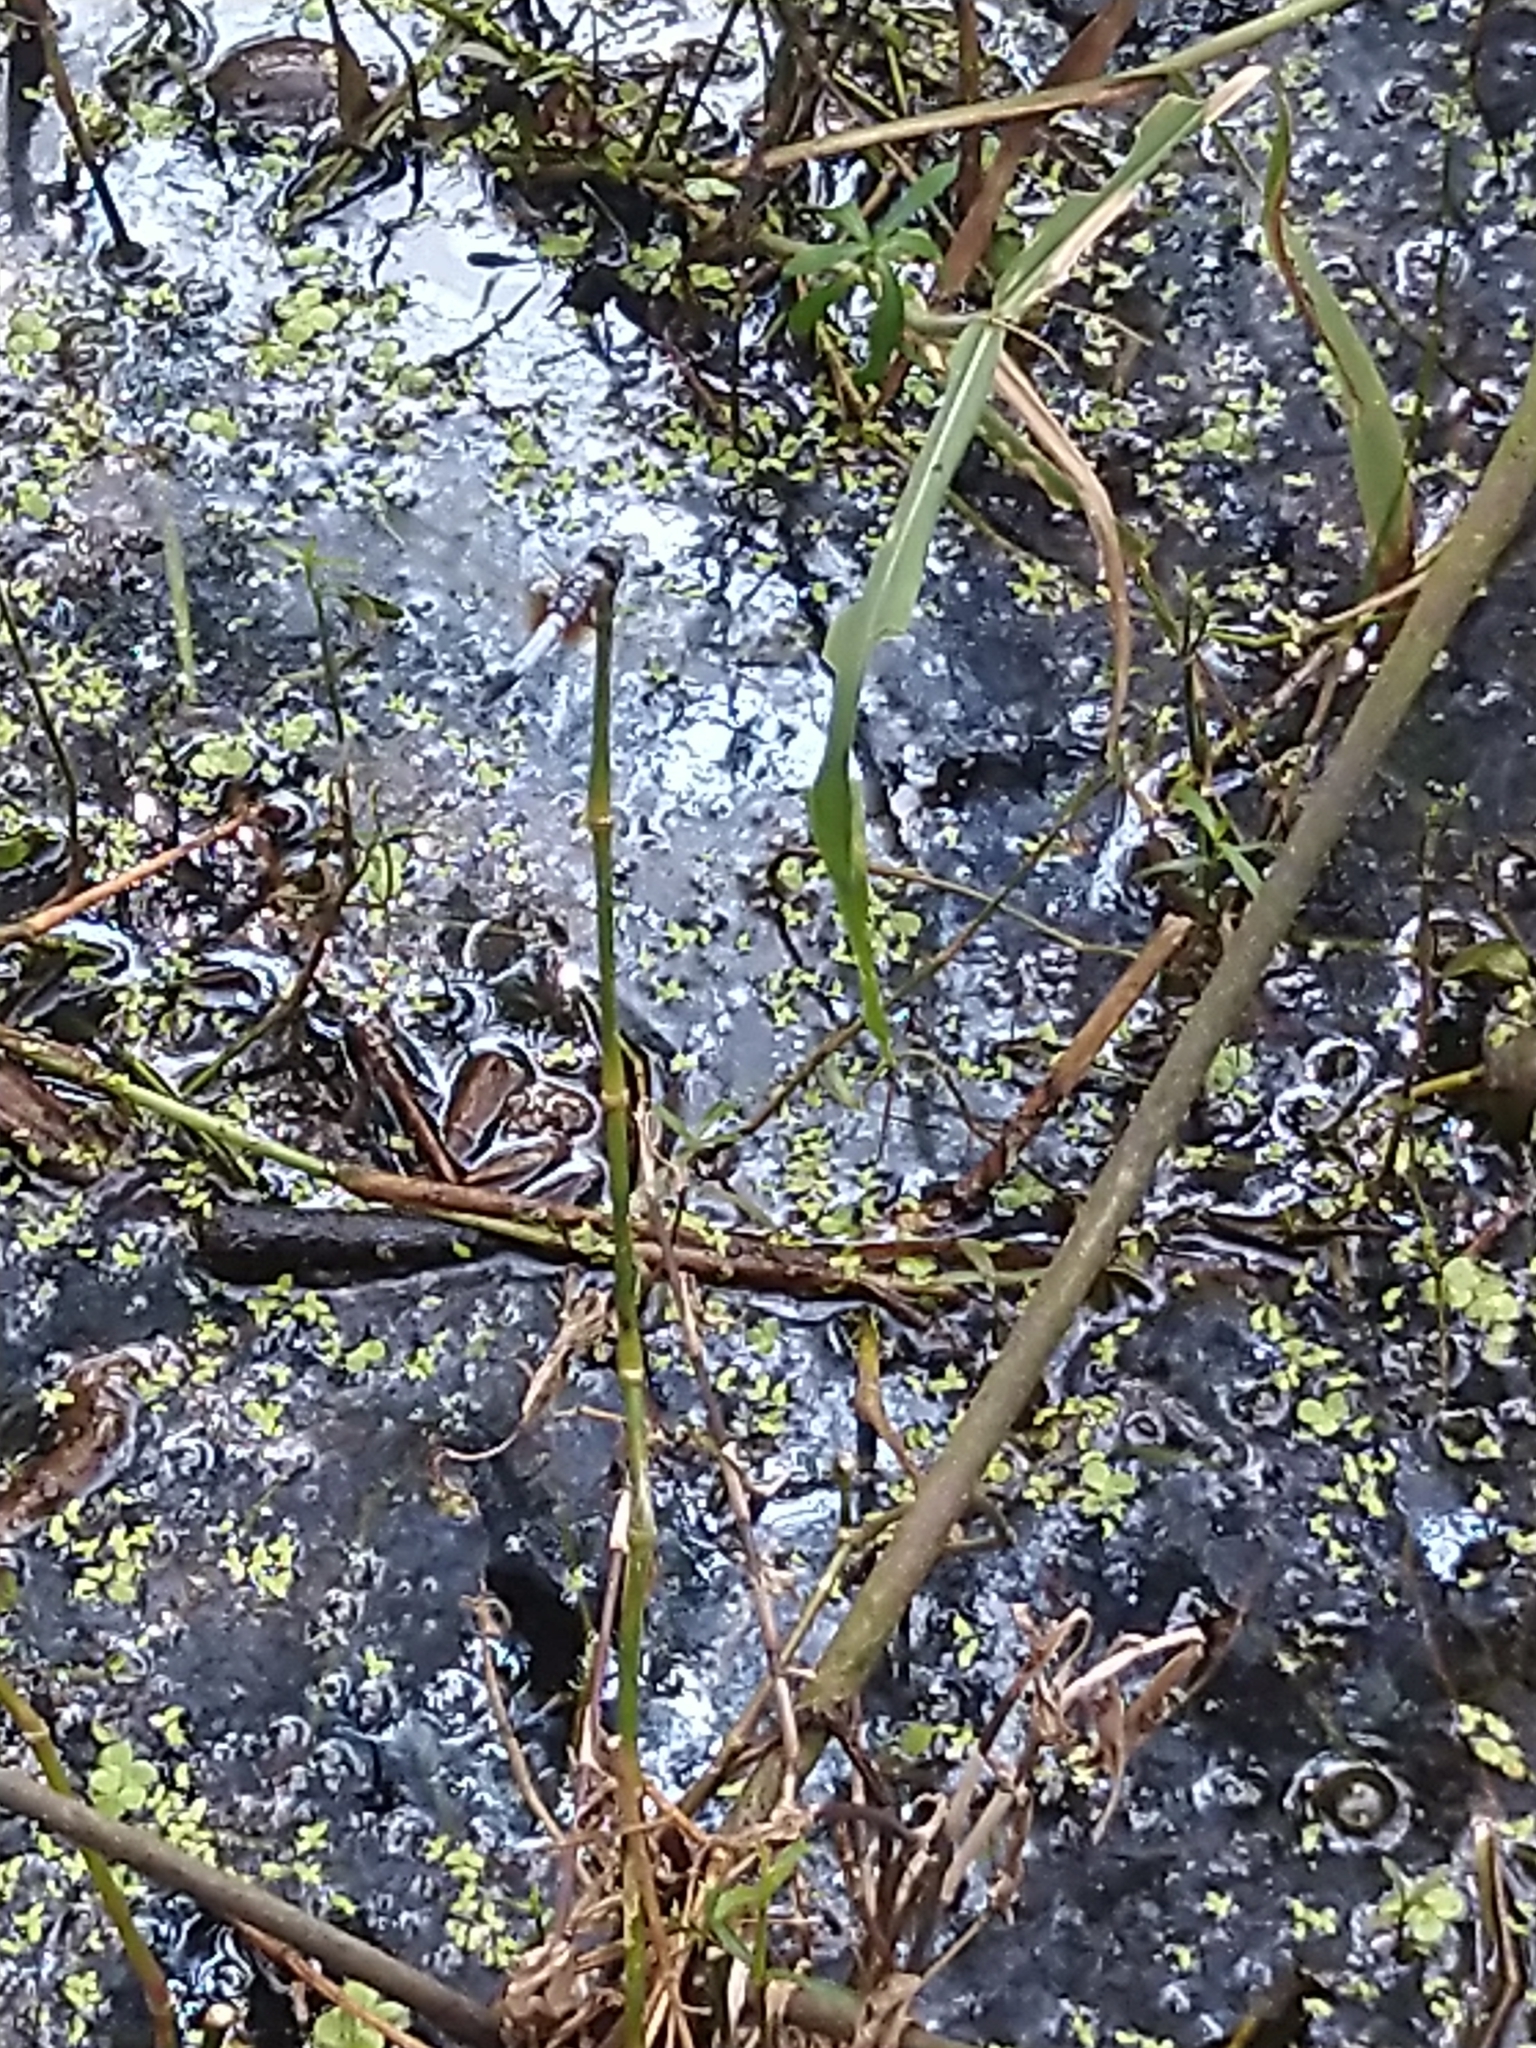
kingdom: Animalia
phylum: Arthropoda
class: Insecta
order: Odonata
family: Libellulidae
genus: Brachydiplax
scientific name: Brachydiplax chalybea
